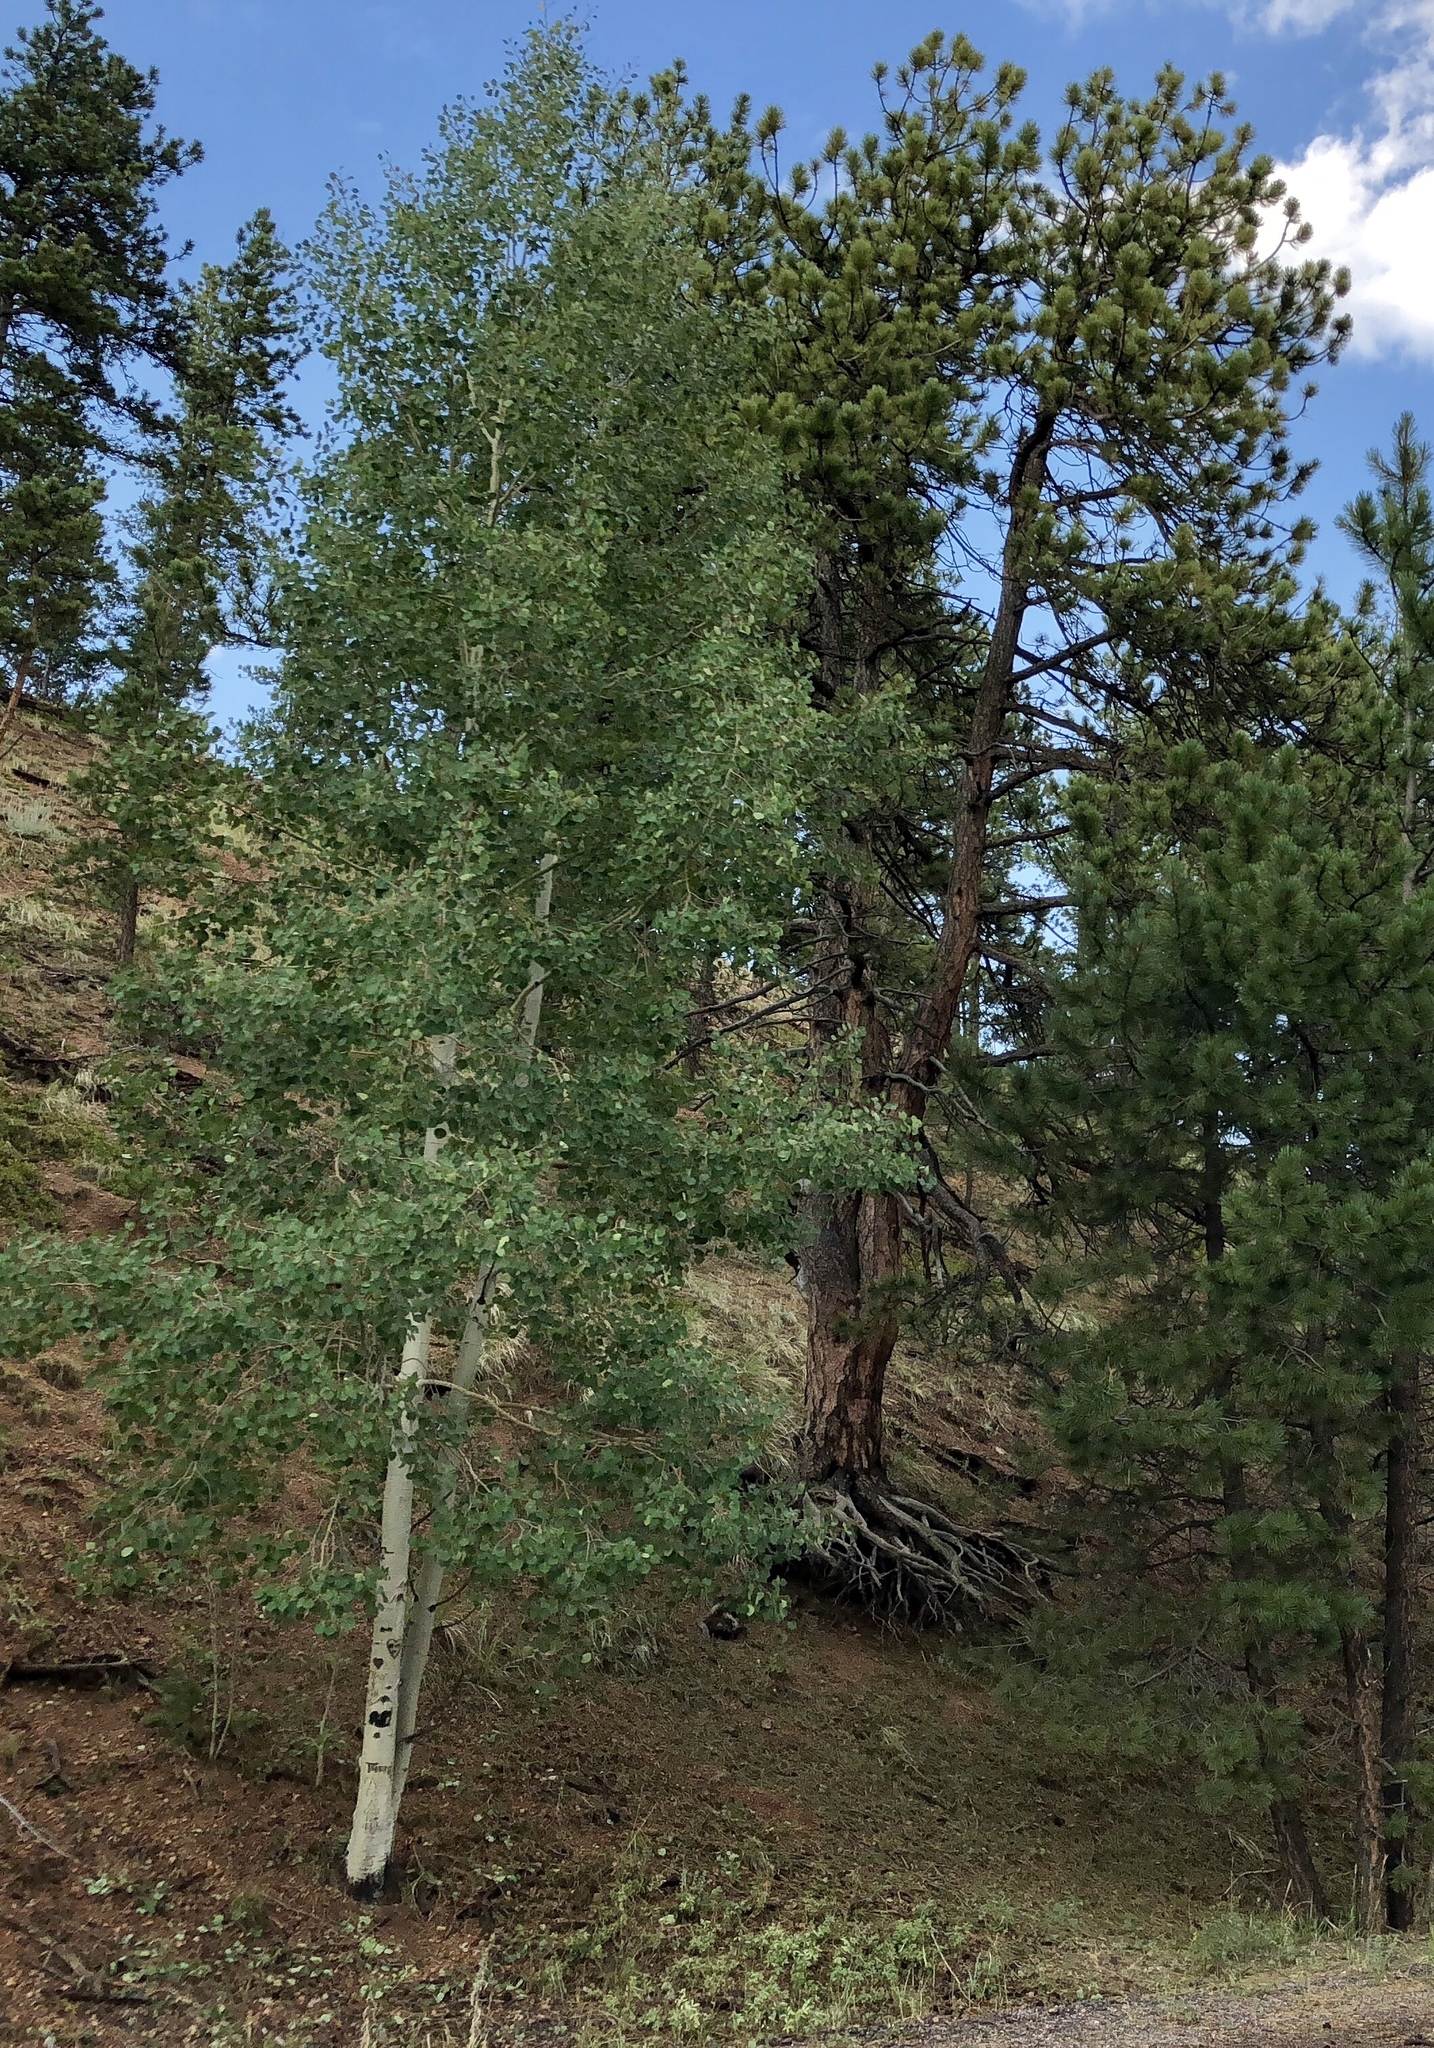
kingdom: Plantae
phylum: Tracheophyta
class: Magnoliopsida
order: Malpighiales
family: Salicaceae
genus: Populus
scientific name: Populus tremuloides
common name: Quaking aspen
